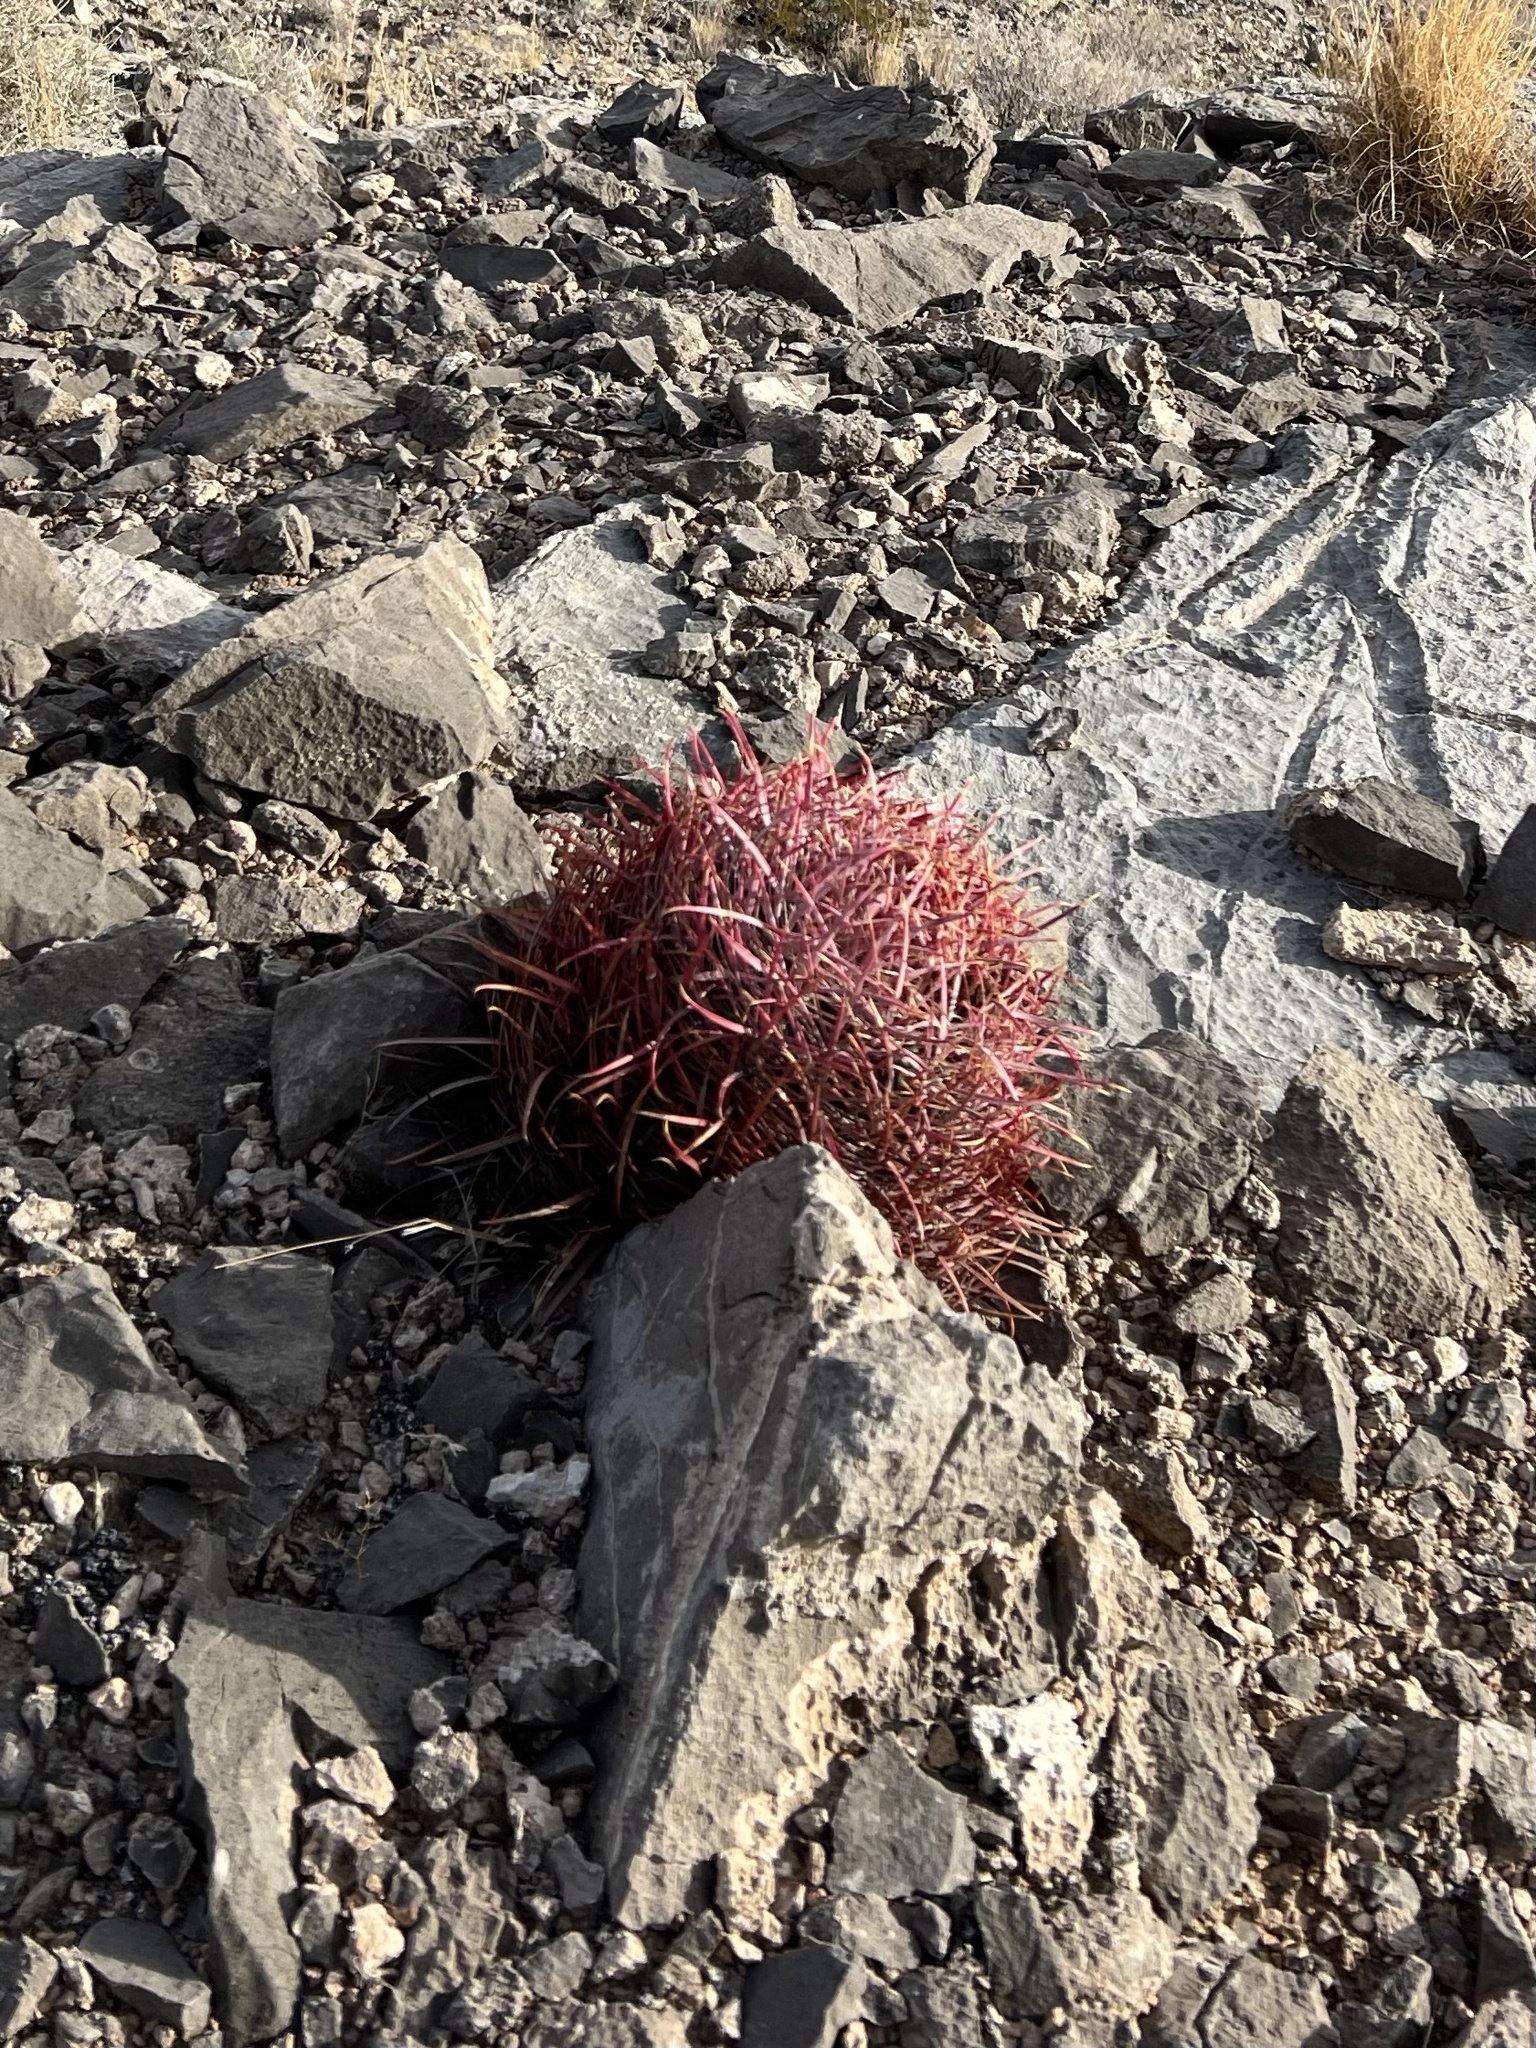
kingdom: Plantae
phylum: Tracheophyta
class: Magnoliopsida
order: Caryophyllales
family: Cactaceae
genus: Ferocactus
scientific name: Ferocactus cylindraceus
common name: California barrel cactus
